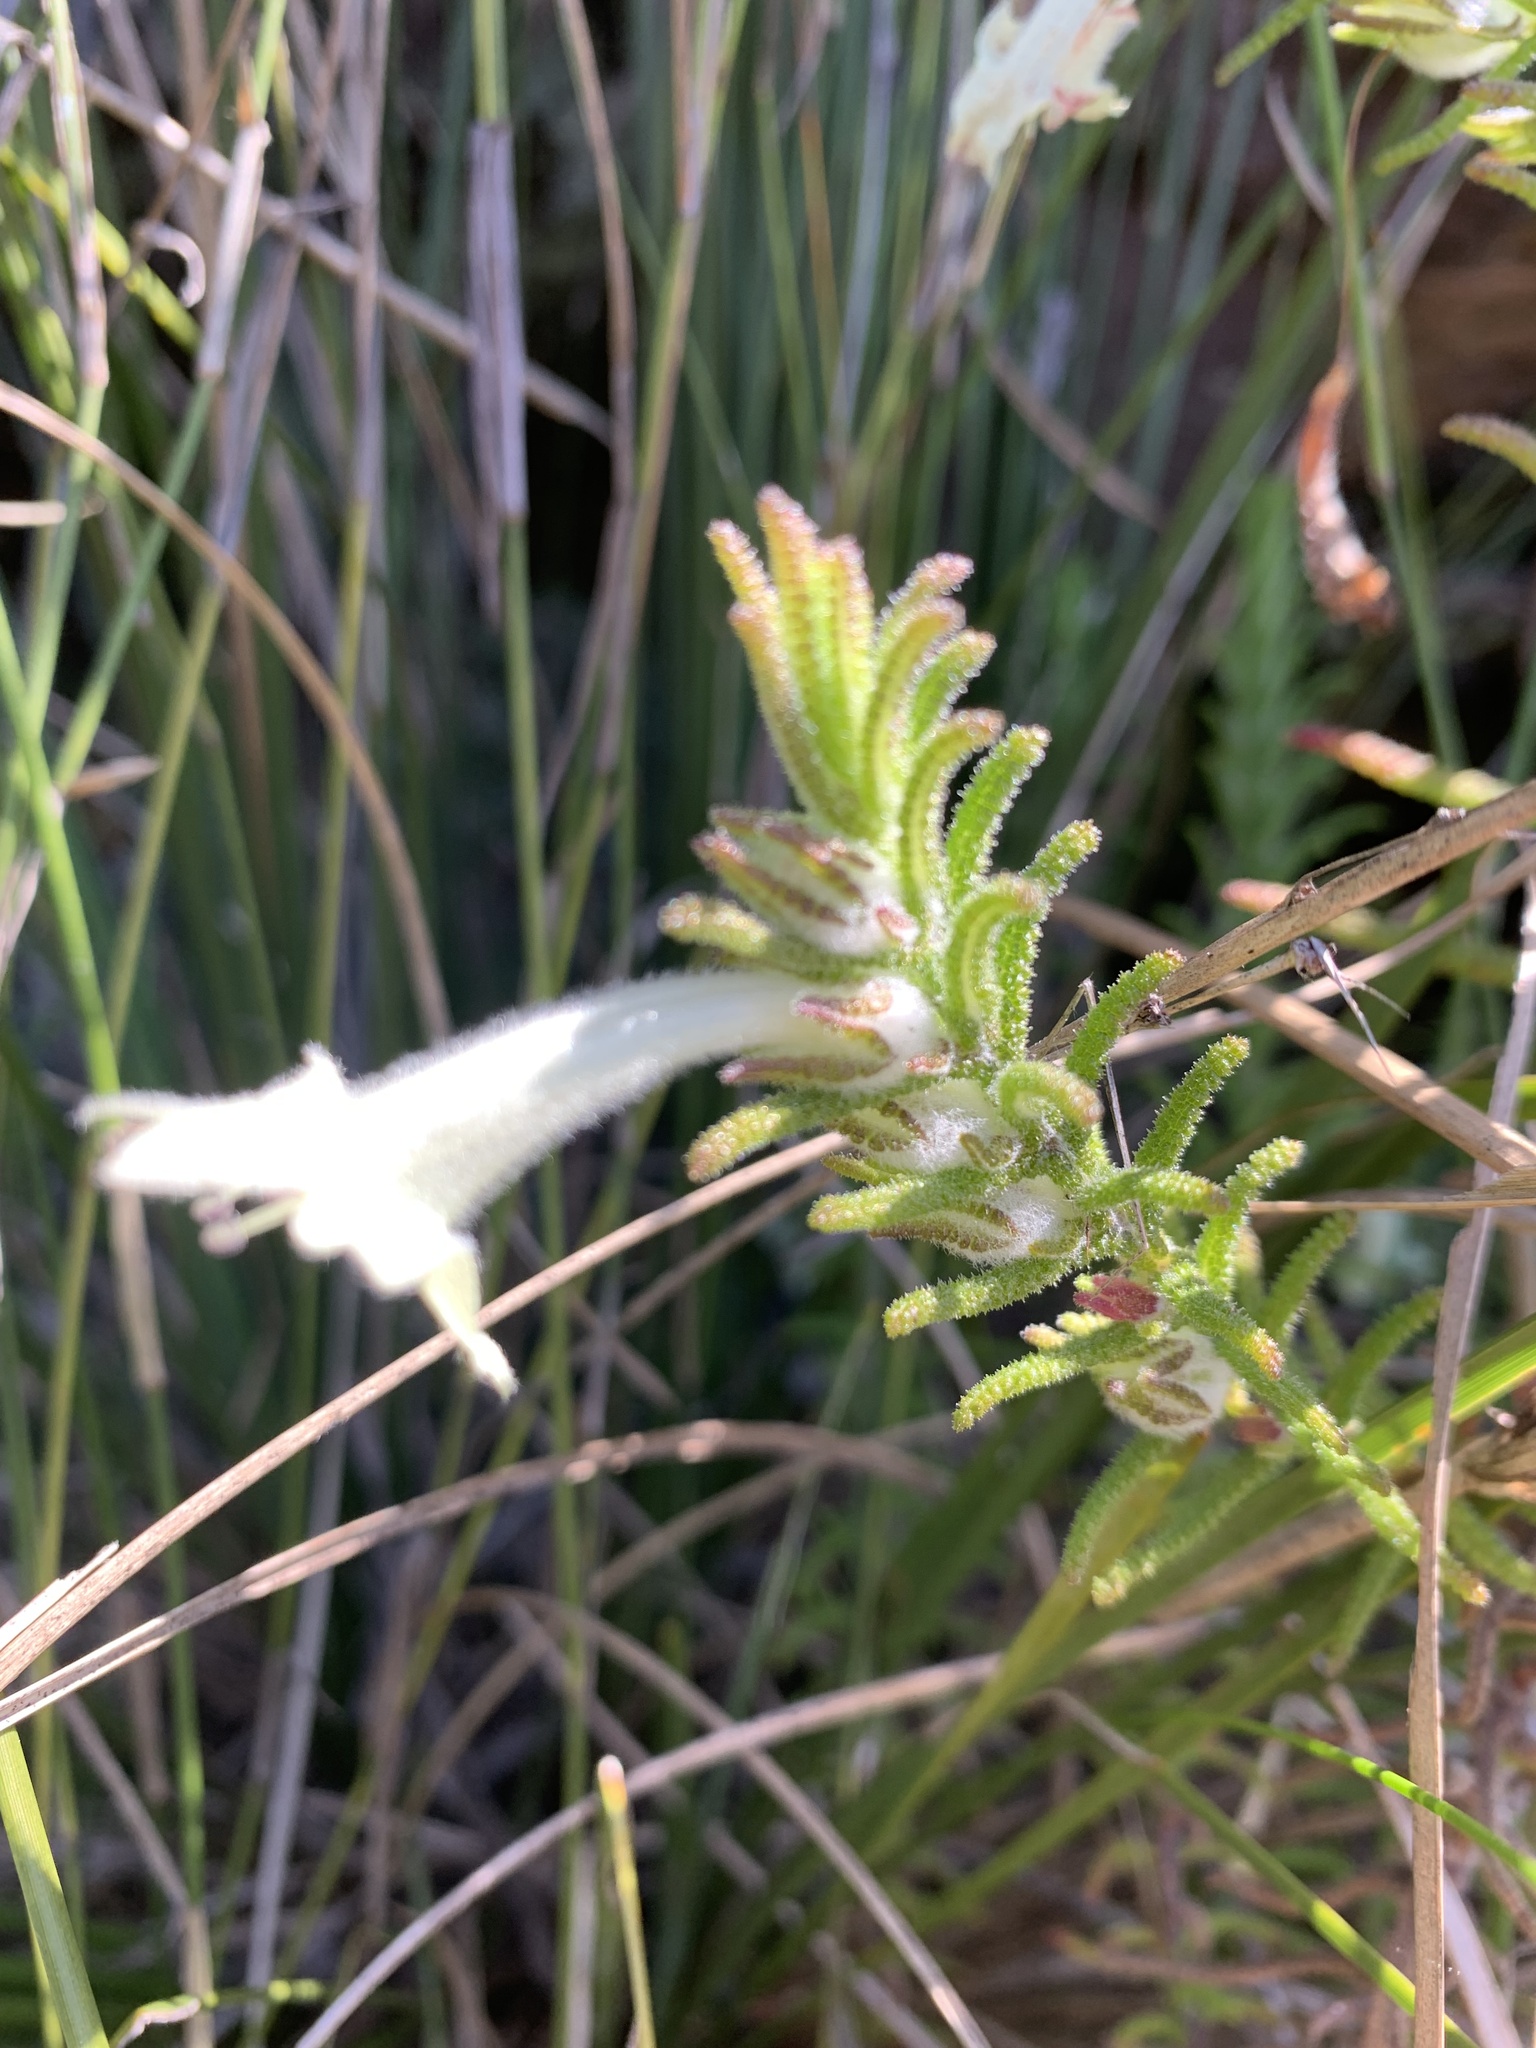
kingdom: Plantae
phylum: Tracheophyta
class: Magnoliopsida
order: Lamiales
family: Lamiaceae
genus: Chloanthes
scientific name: Chloanthes stoechadis
